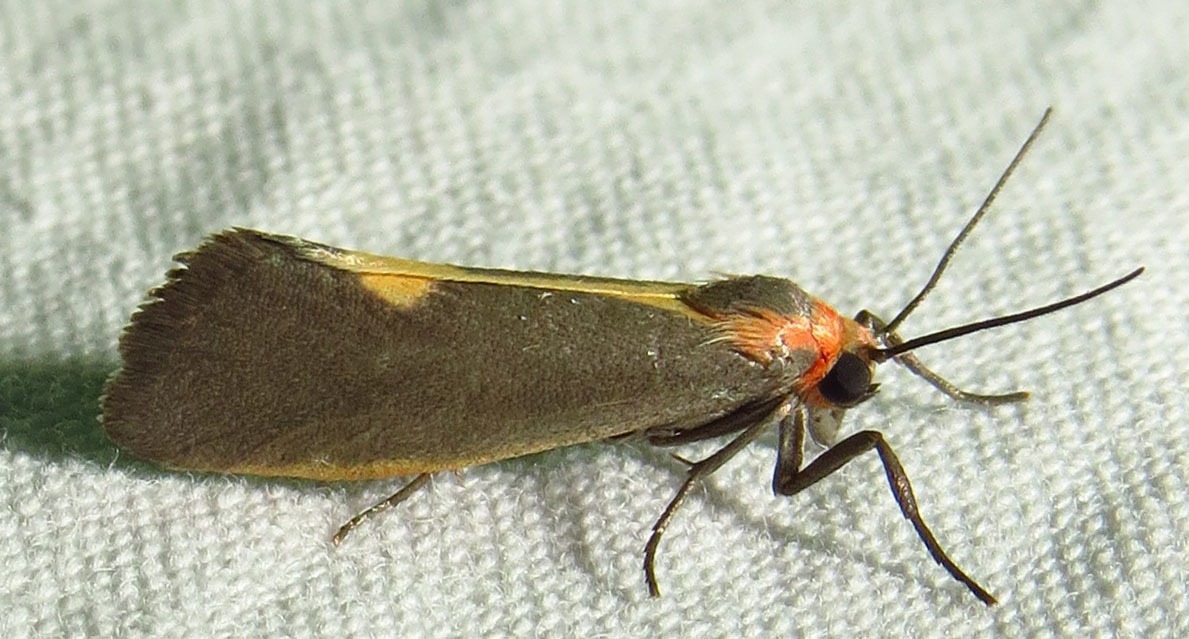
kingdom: Animalia
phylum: Arthropoda
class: Insecta
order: Lepidoptera
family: Erebidae
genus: Cisthene
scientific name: Cisthene plumbea
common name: Lead colored lichen moth
